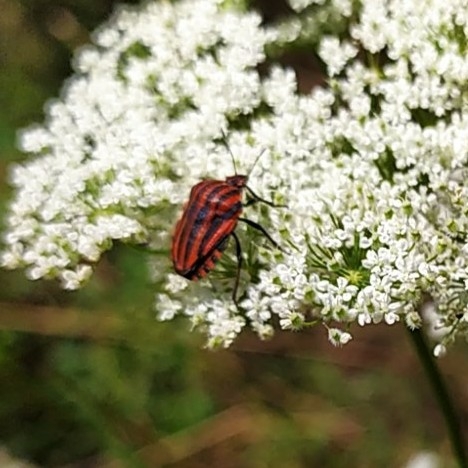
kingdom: Animalia
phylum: Arthropoda
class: Insecta
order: Hemiptera
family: Pentatomidae
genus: Graphosoma
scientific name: Graphosoma italicum
